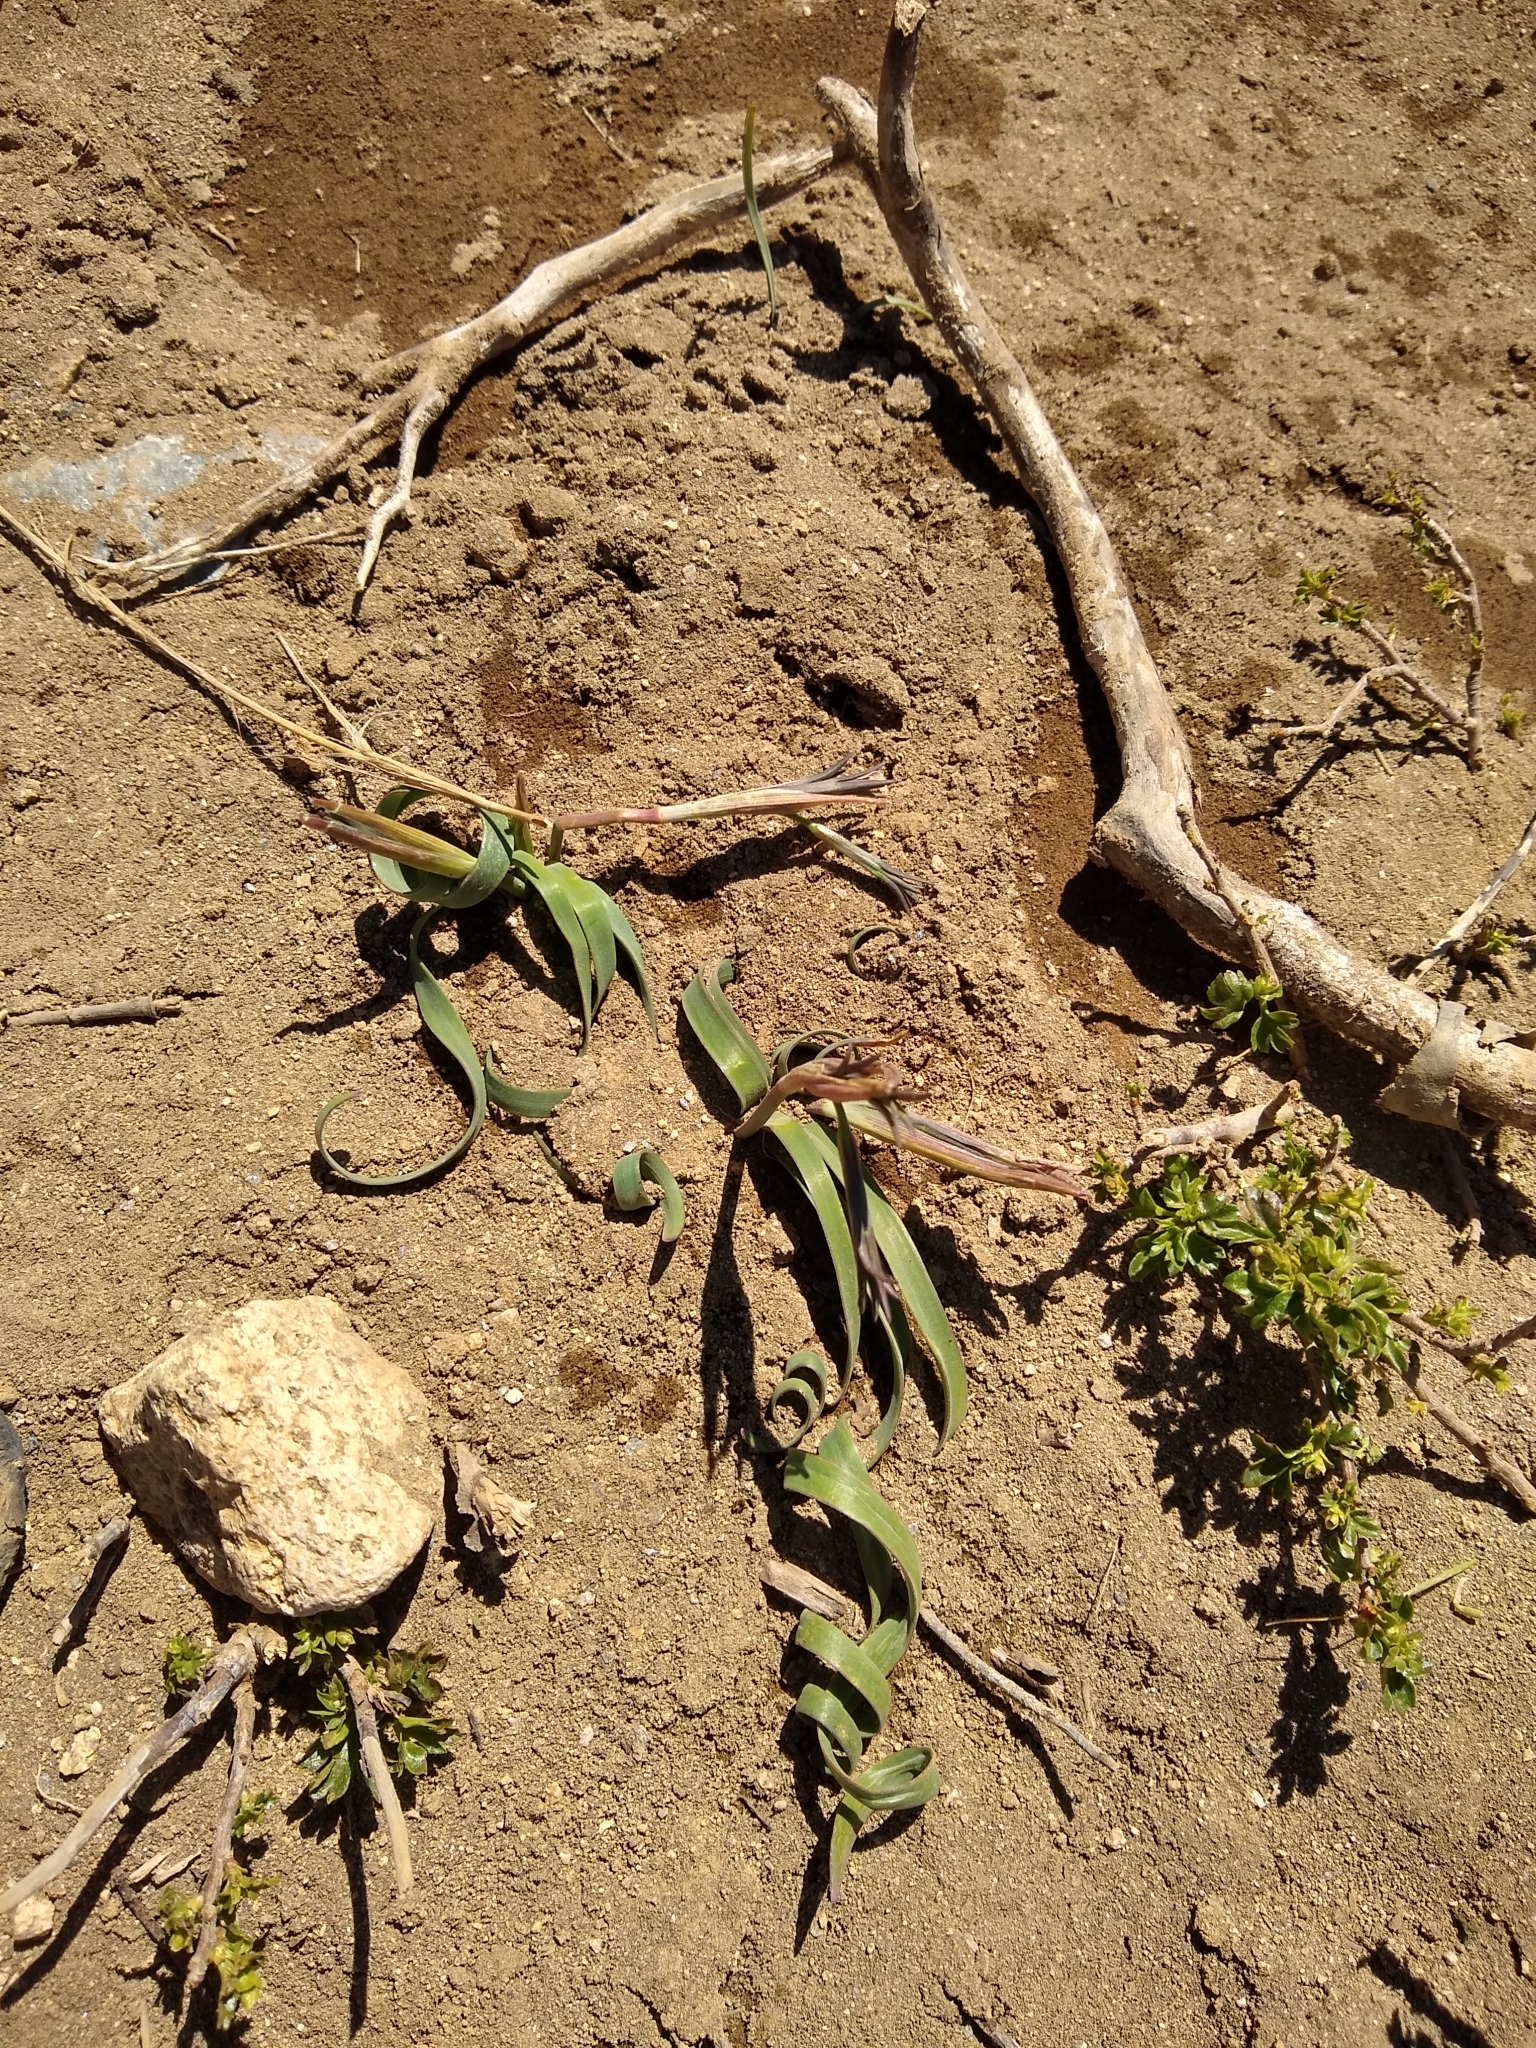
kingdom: Plantae
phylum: Tracheophyta
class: Liliopsida
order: Asparagales
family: Amaryllidaceae
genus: Tristagma
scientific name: Tristagma nivale
